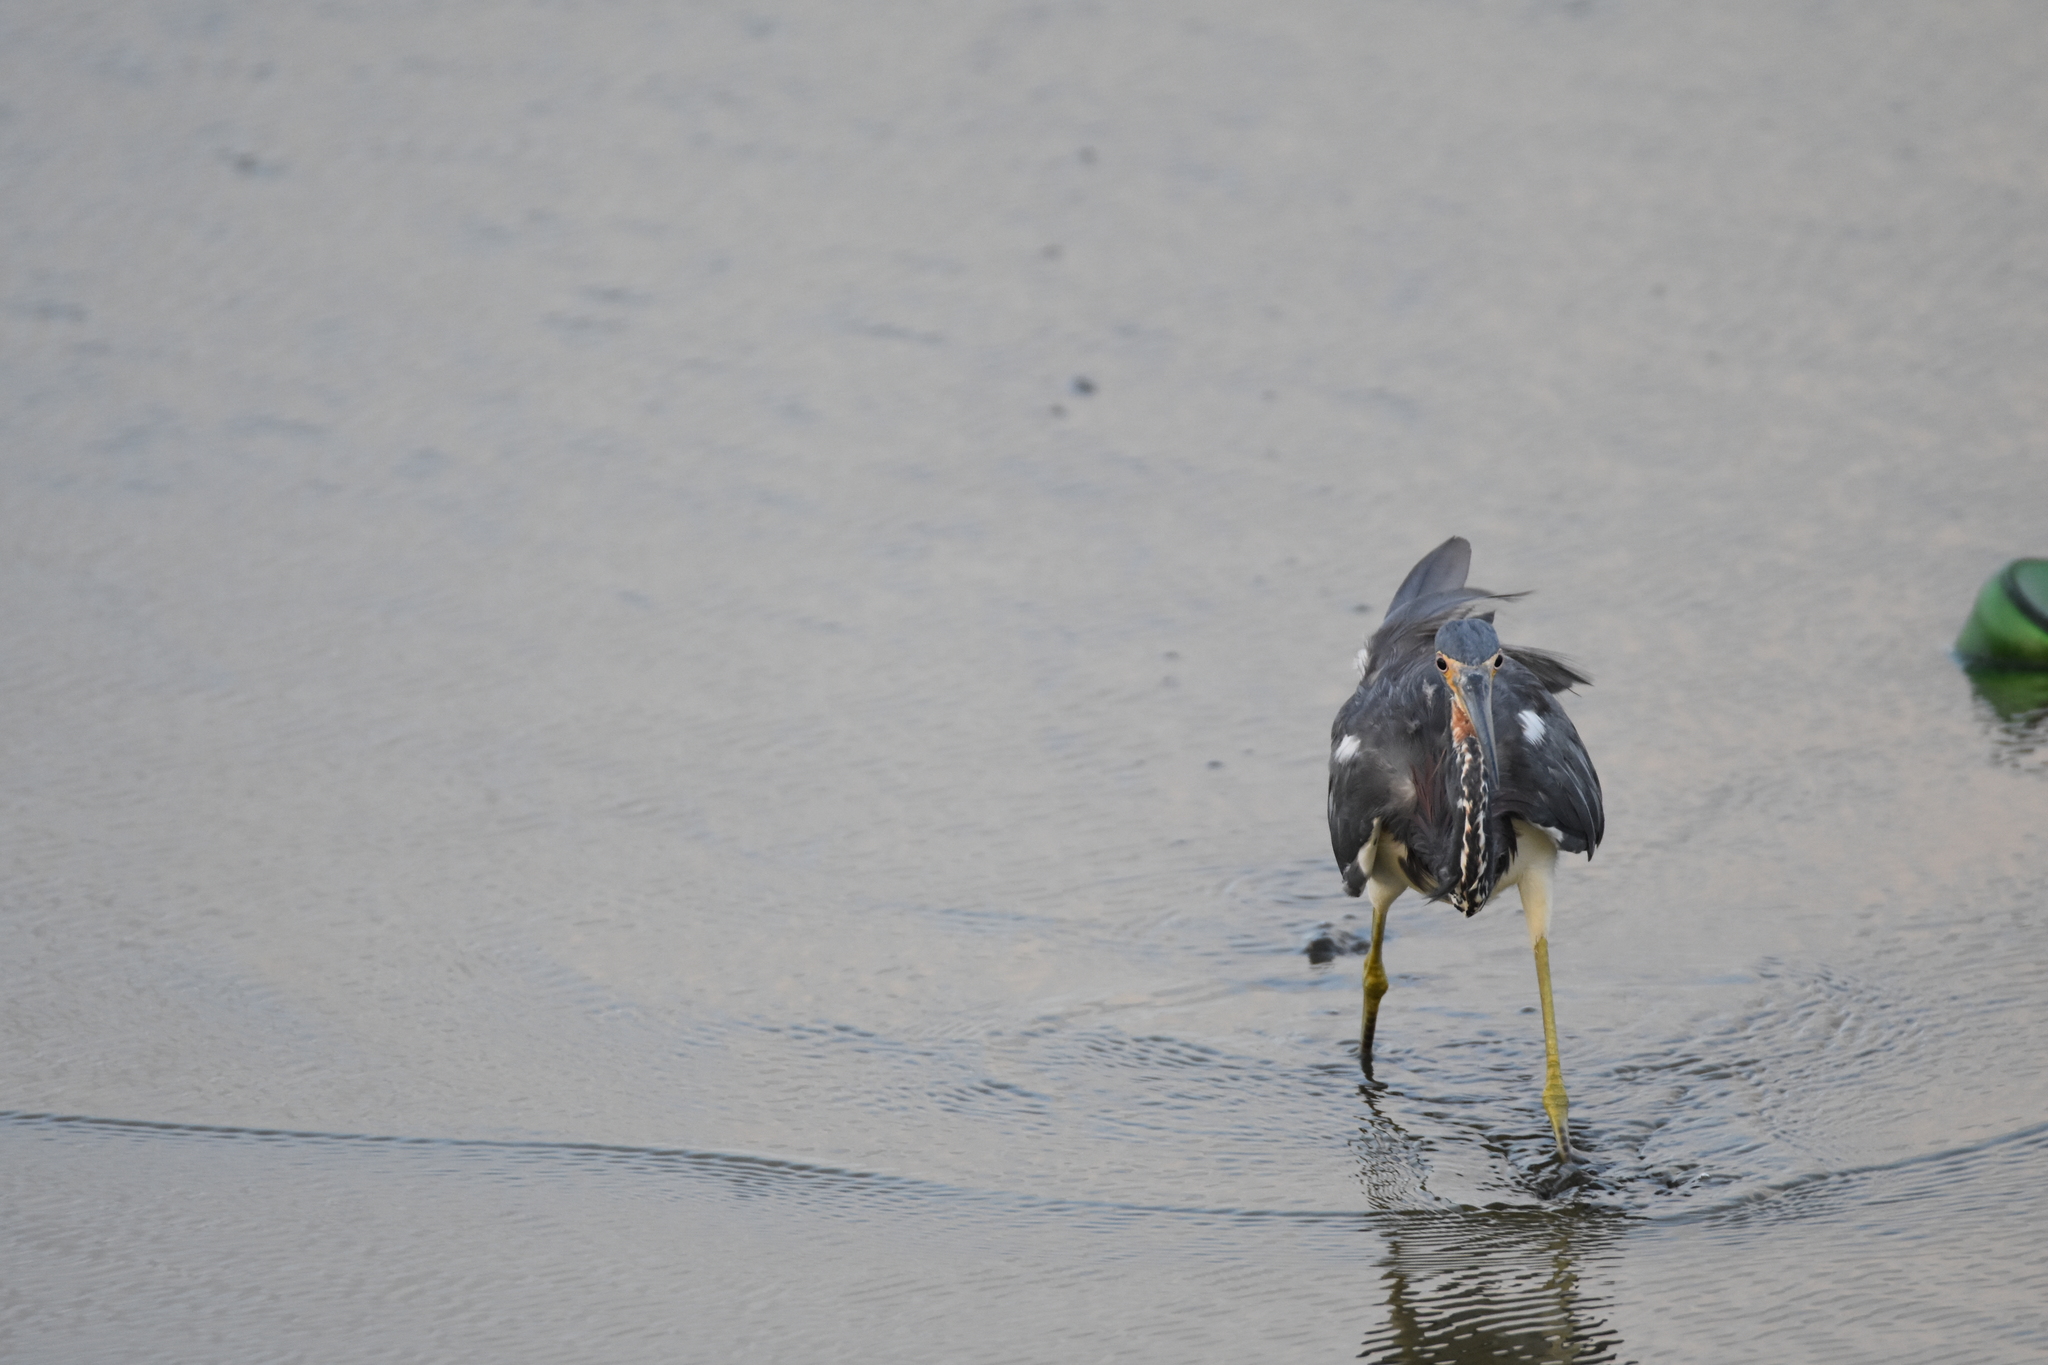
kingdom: Animalia
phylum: Chordata
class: Aves
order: Pelecaniformes
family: Ardeidae
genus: Egretta
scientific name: Egretta tricolor
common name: Tricolored heron
